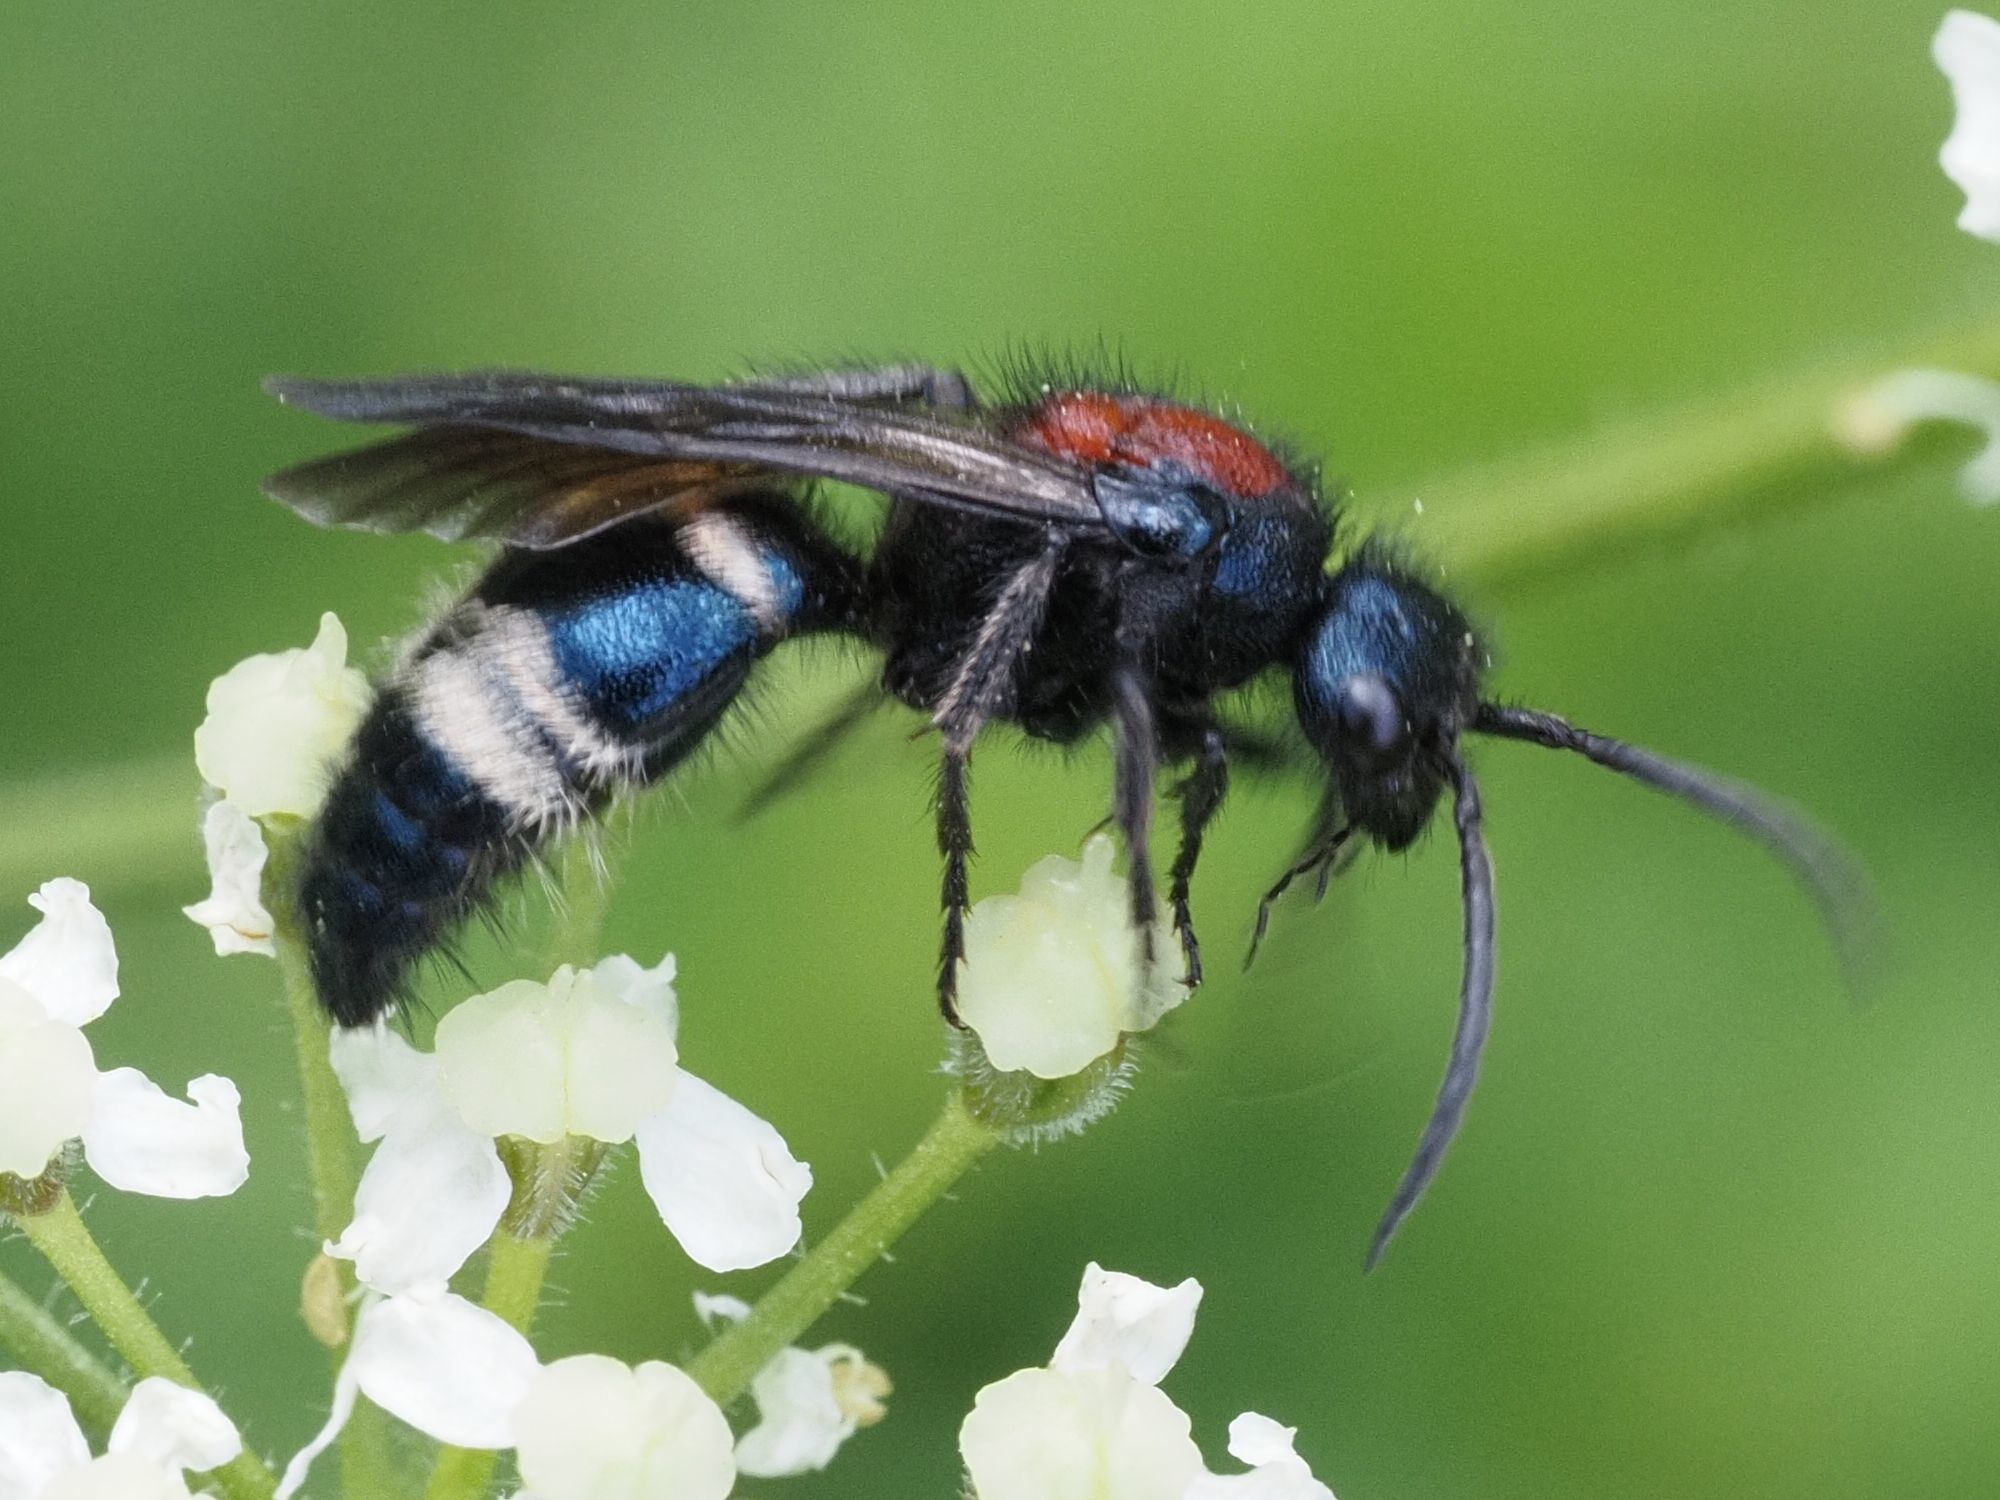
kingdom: Animalia
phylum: Arthropoda
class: Insecta
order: Hymenoptera
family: Mutillidae
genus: Mutilla
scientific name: Mutilla europaea
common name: Large velvet ant
